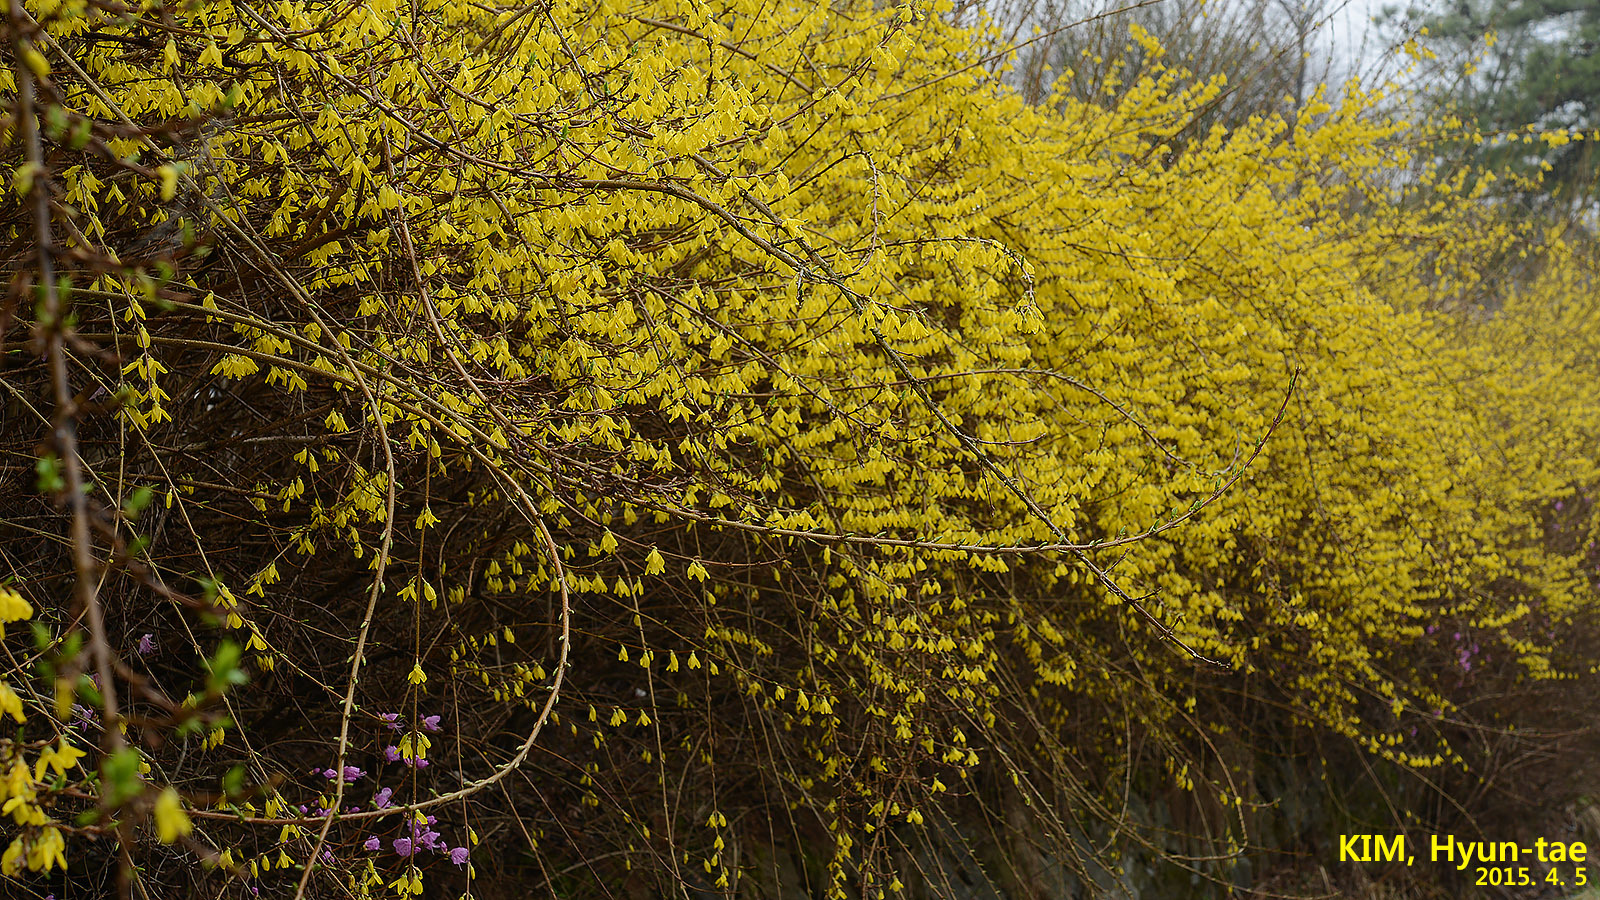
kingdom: Plantae
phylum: Tracheophyta
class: Magnoliopsida
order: Lamiales
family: Oleaceae
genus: Forsythia
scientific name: Forsythia koreana
